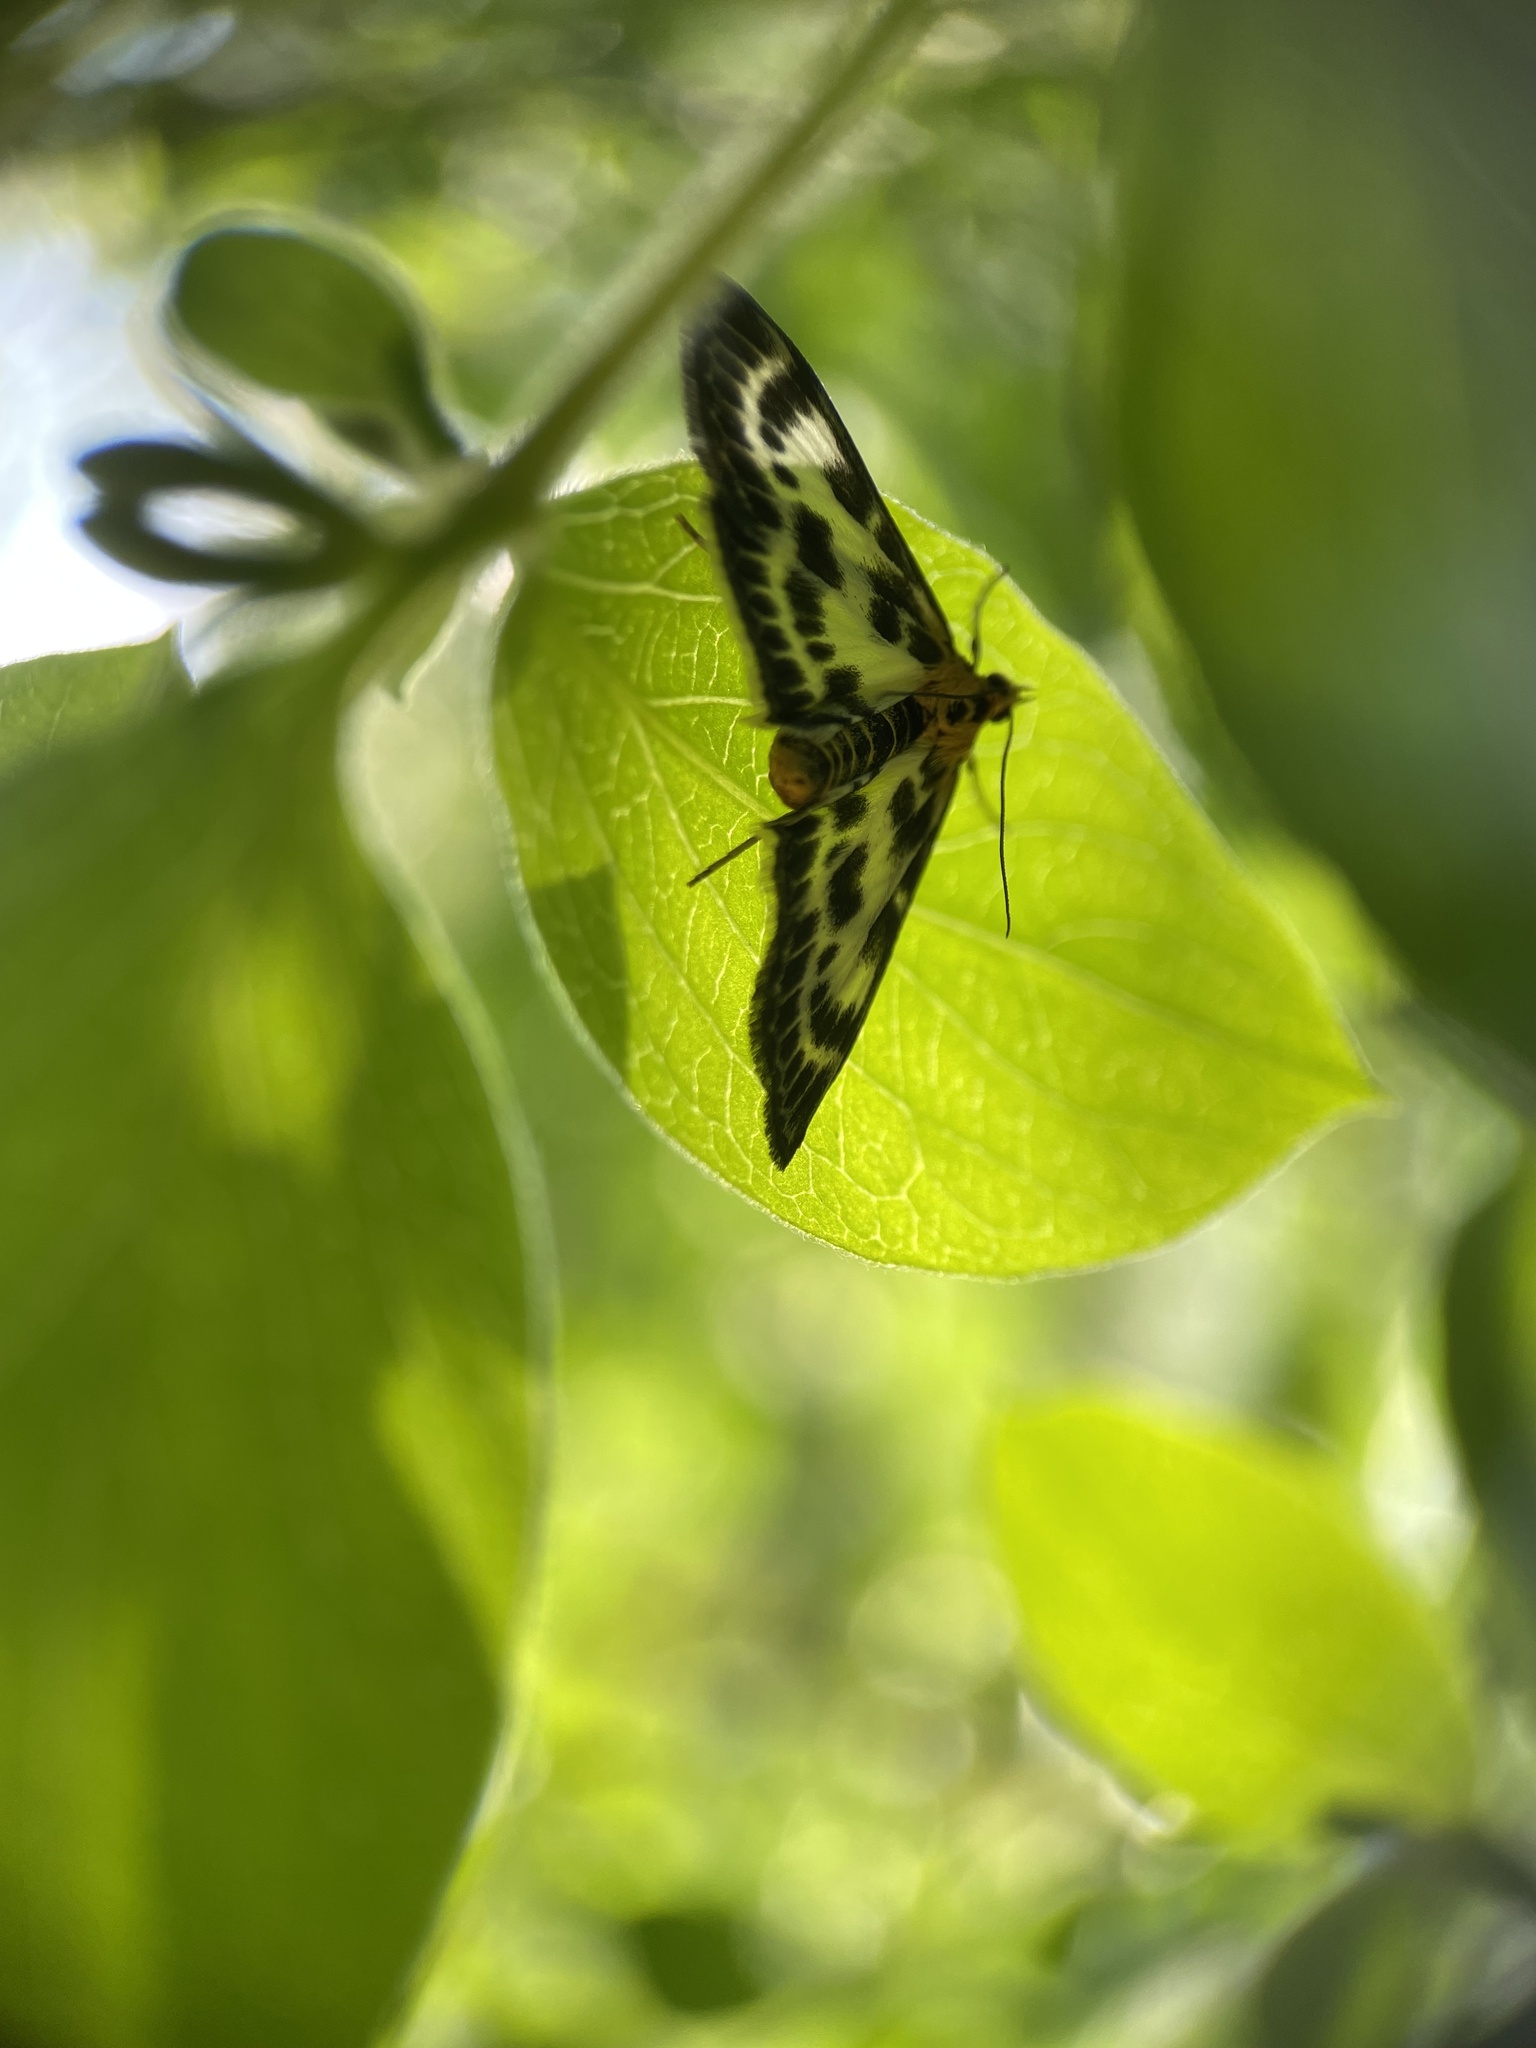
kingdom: Animalia
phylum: Arthropoda
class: Insecta
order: Lepidoptera
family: Crambidae
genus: Anania
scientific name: Anania hortulata
